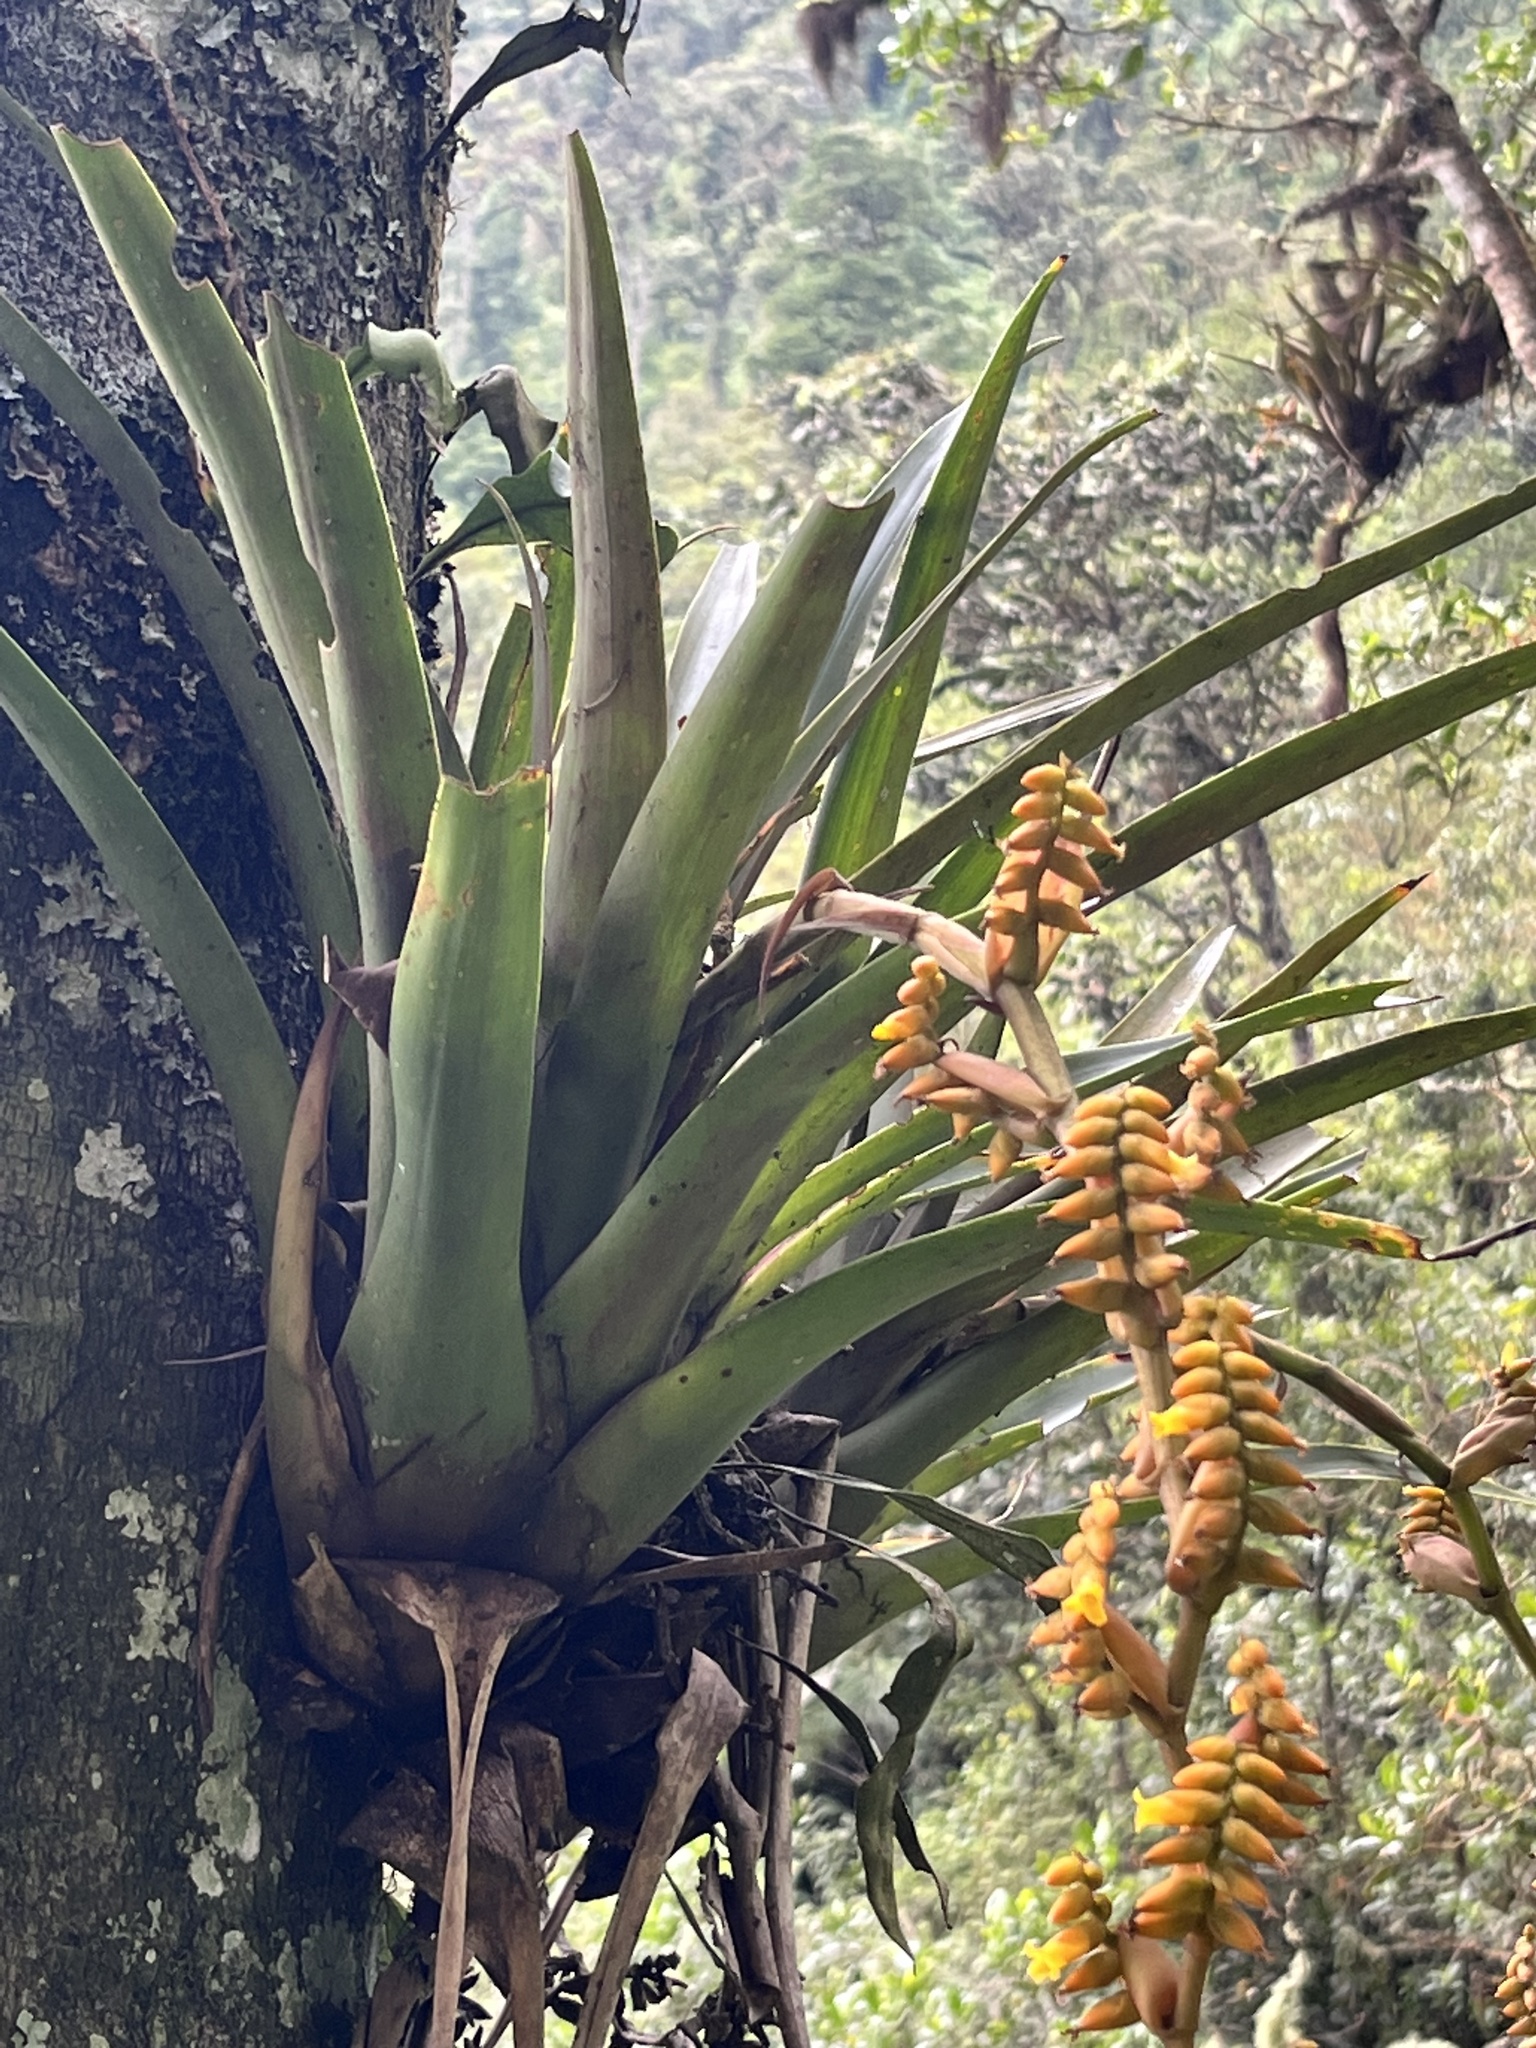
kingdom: Plantae
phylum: Tracheophyta
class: Liliopsida
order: Poales
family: Bromeliaceae
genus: Racinaea
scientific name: Racinaea tetrantha
